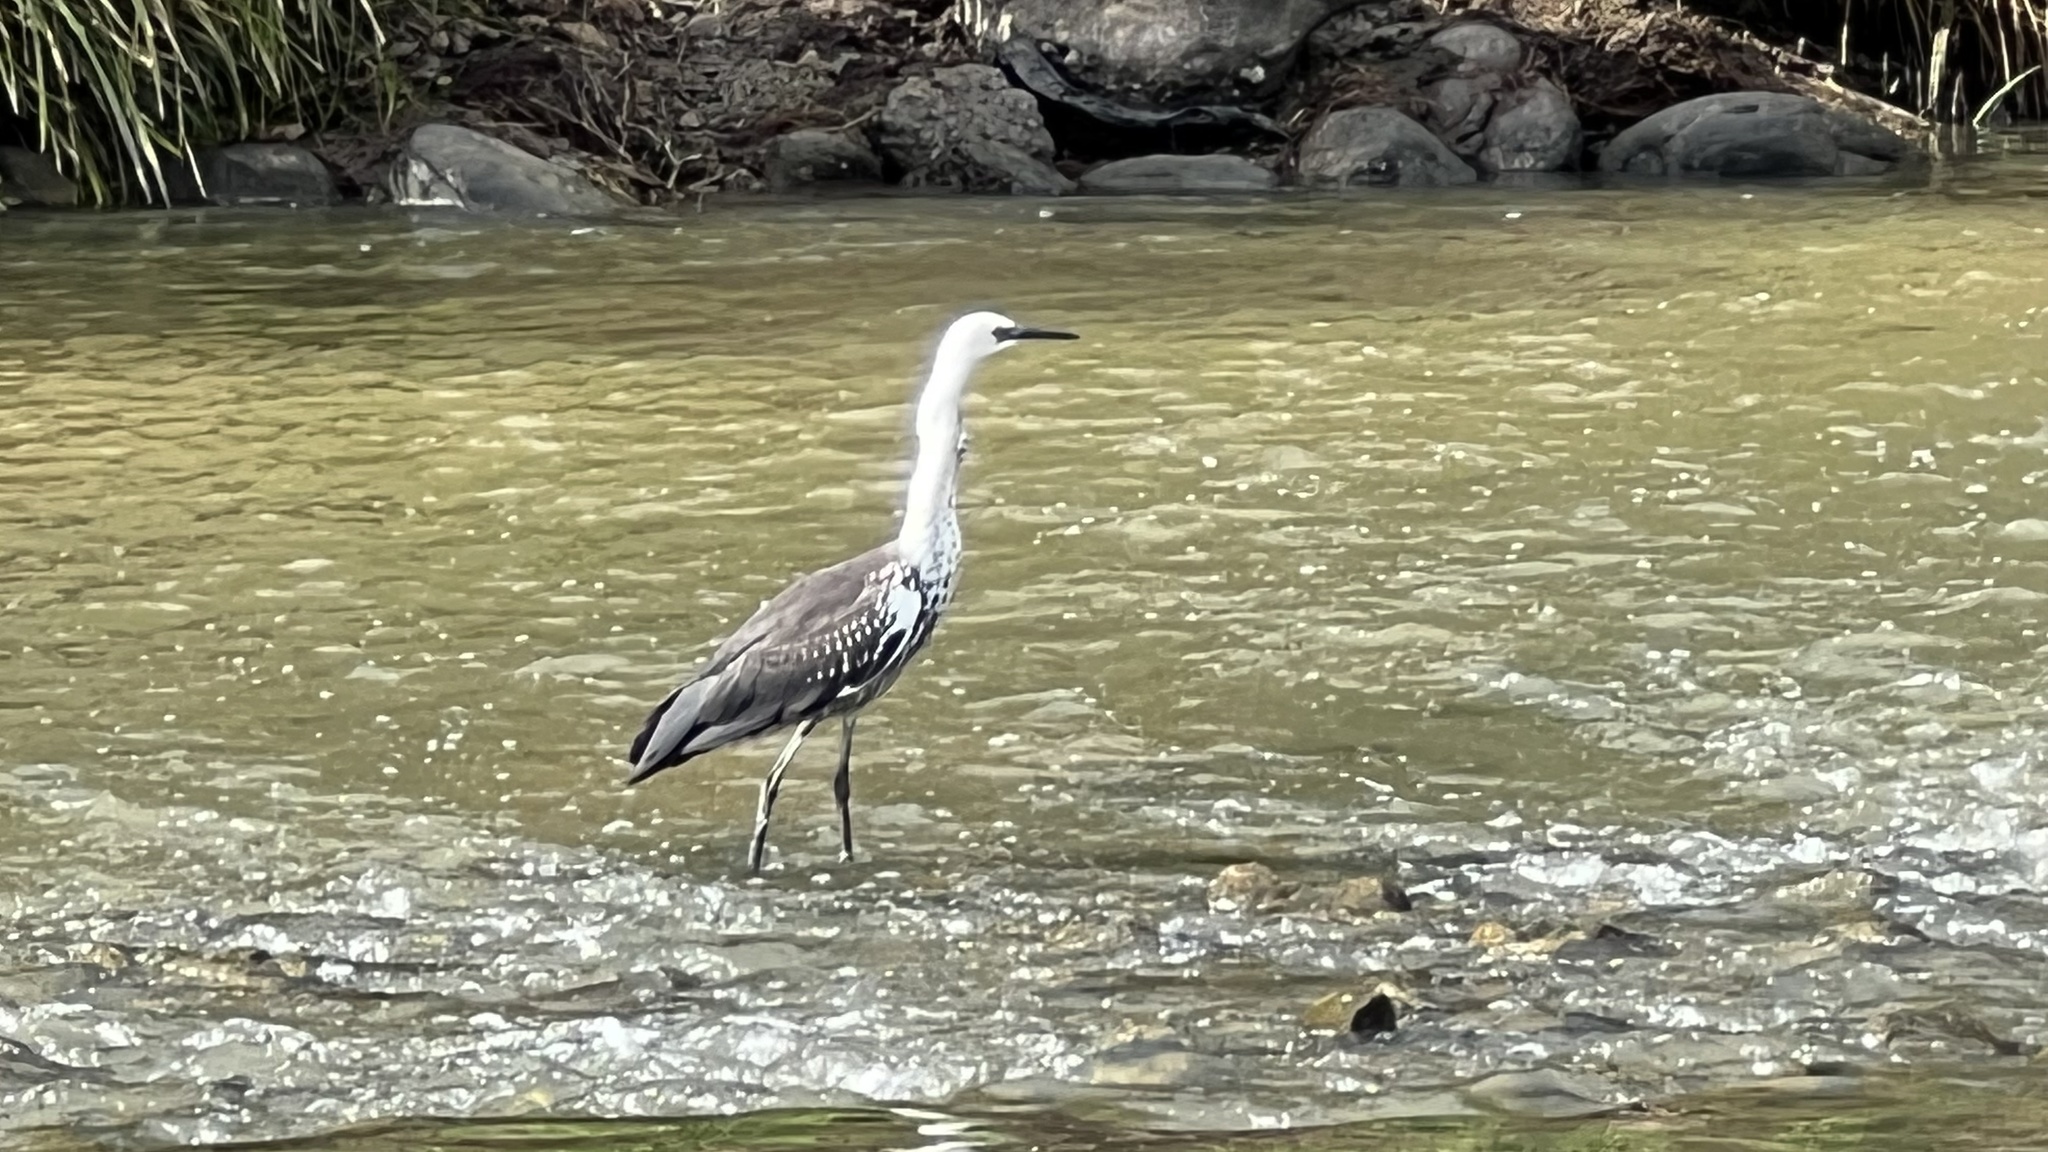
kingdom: Animalia
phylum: Chordata
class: Aves
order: Pelecaniformes
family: Ardeidae
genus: Ardea
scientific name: Ardea pacifica
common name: White-necked heron
